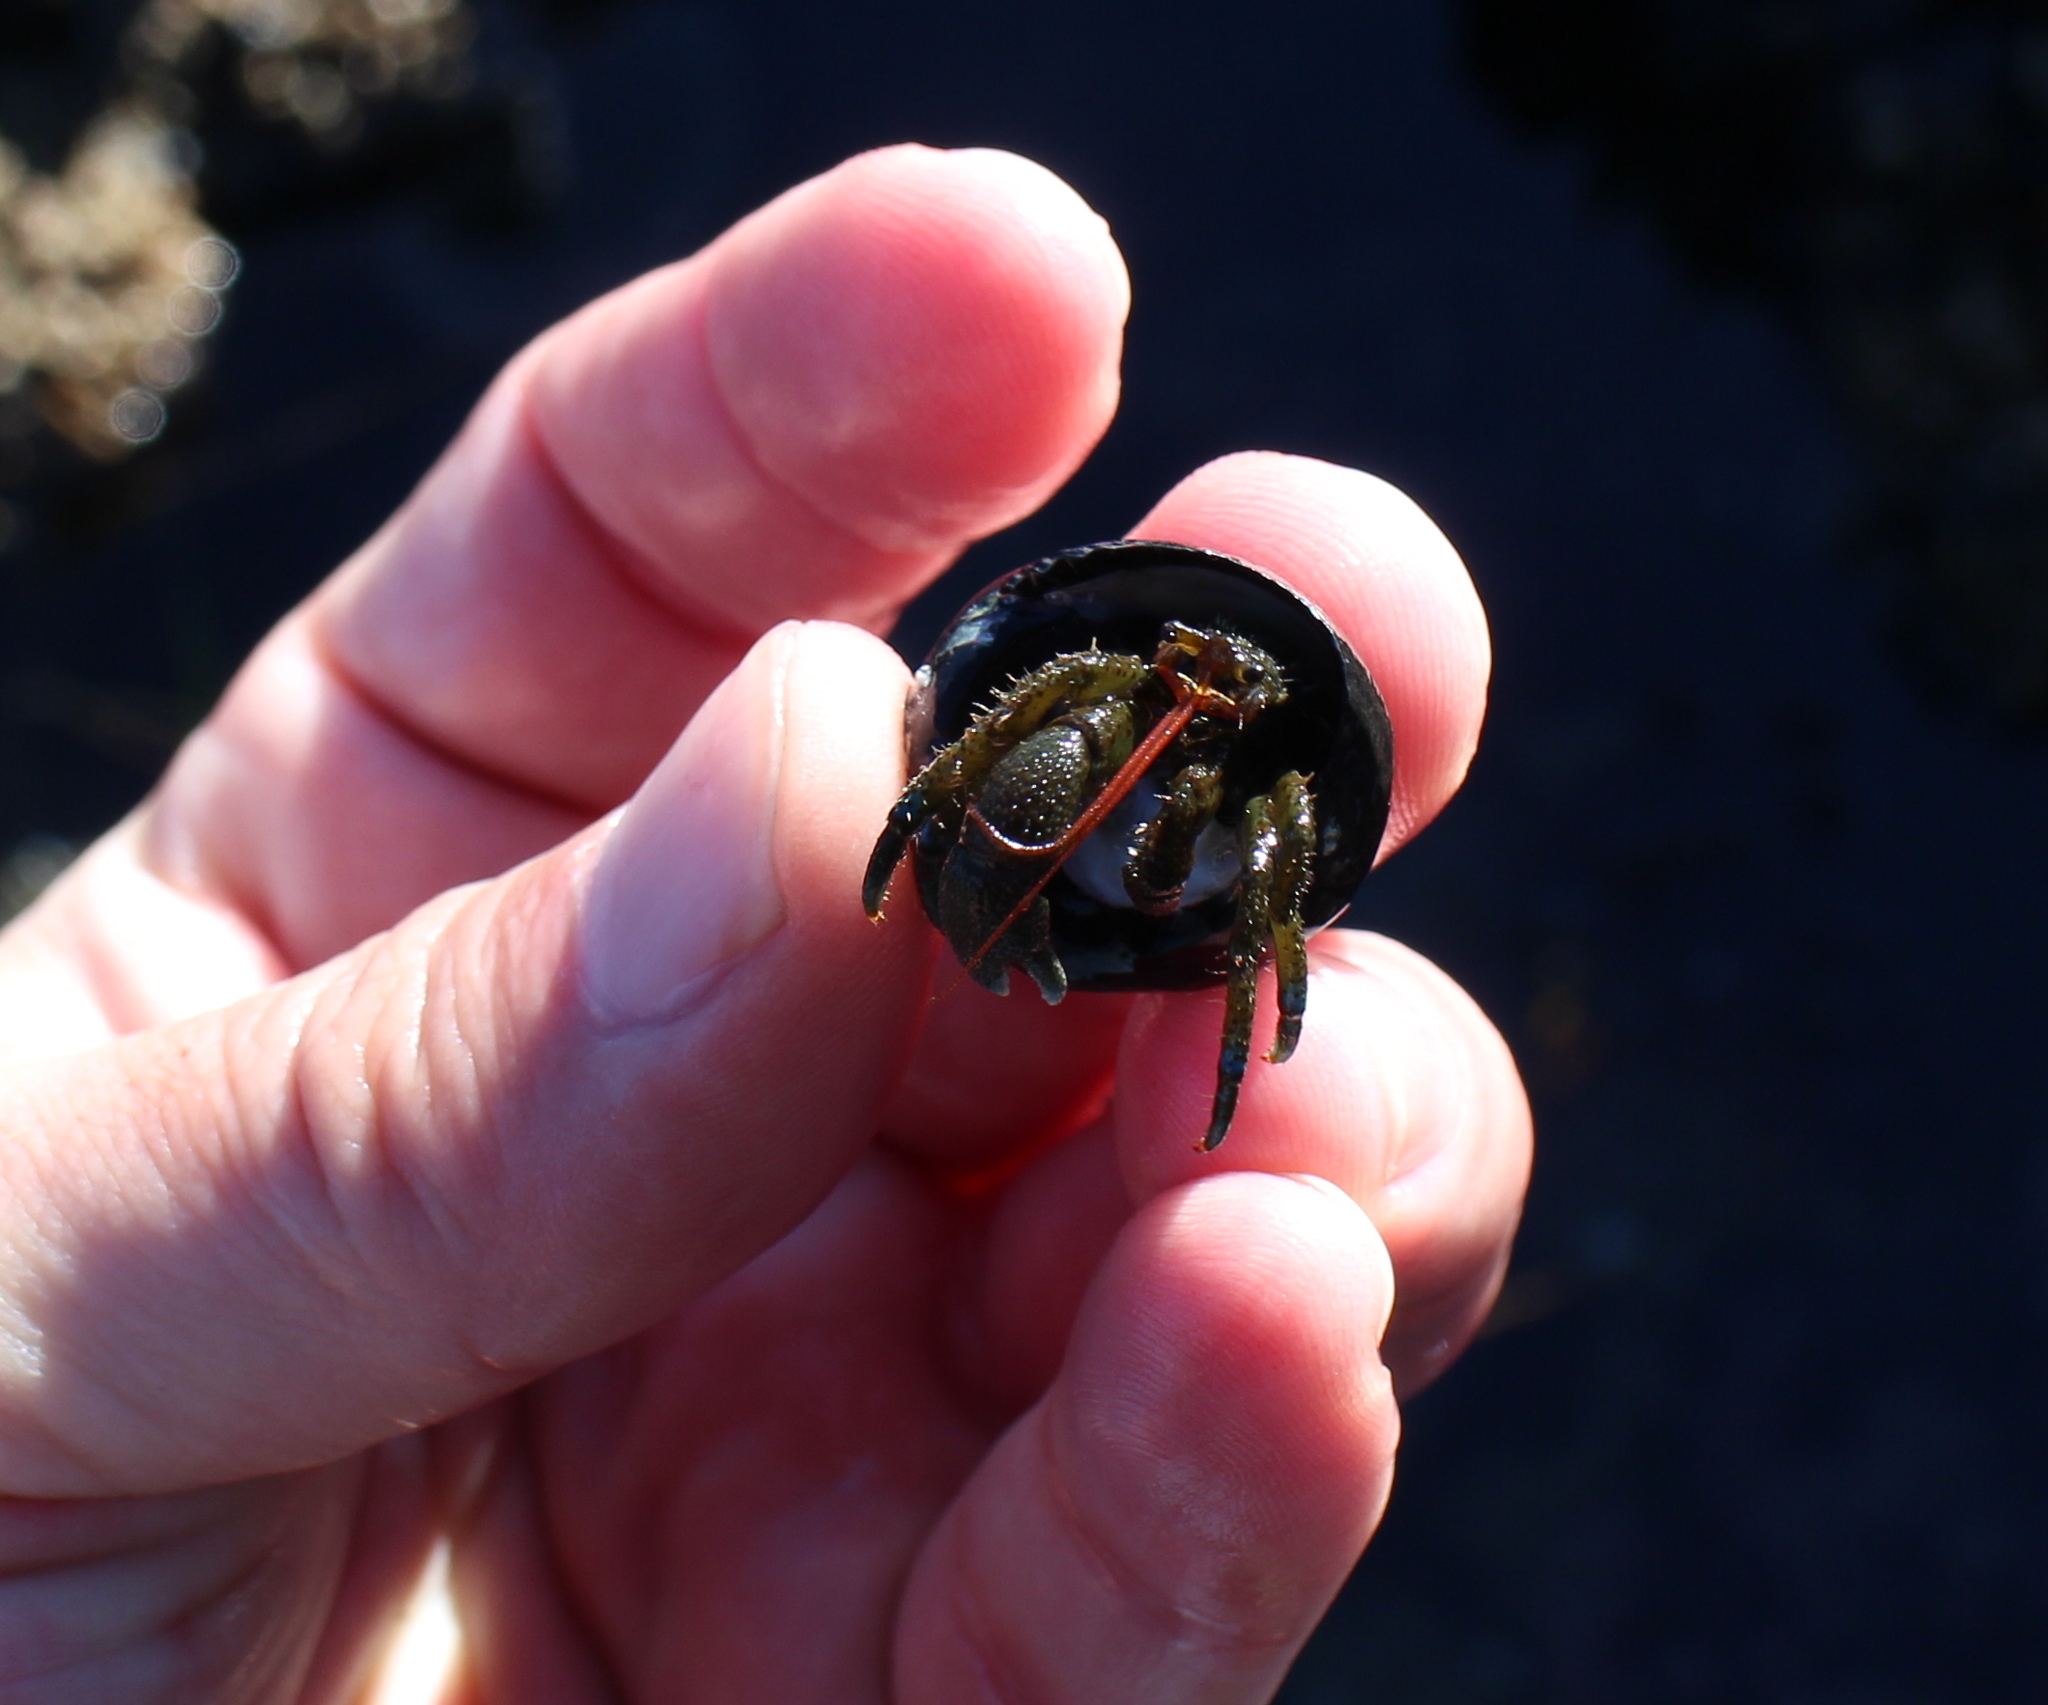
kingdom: Animalia
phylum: Arthropoda
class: Malacostraca
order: Decapoda
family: Paguridae
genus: Pagurus
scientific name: Pagurus samuelis
